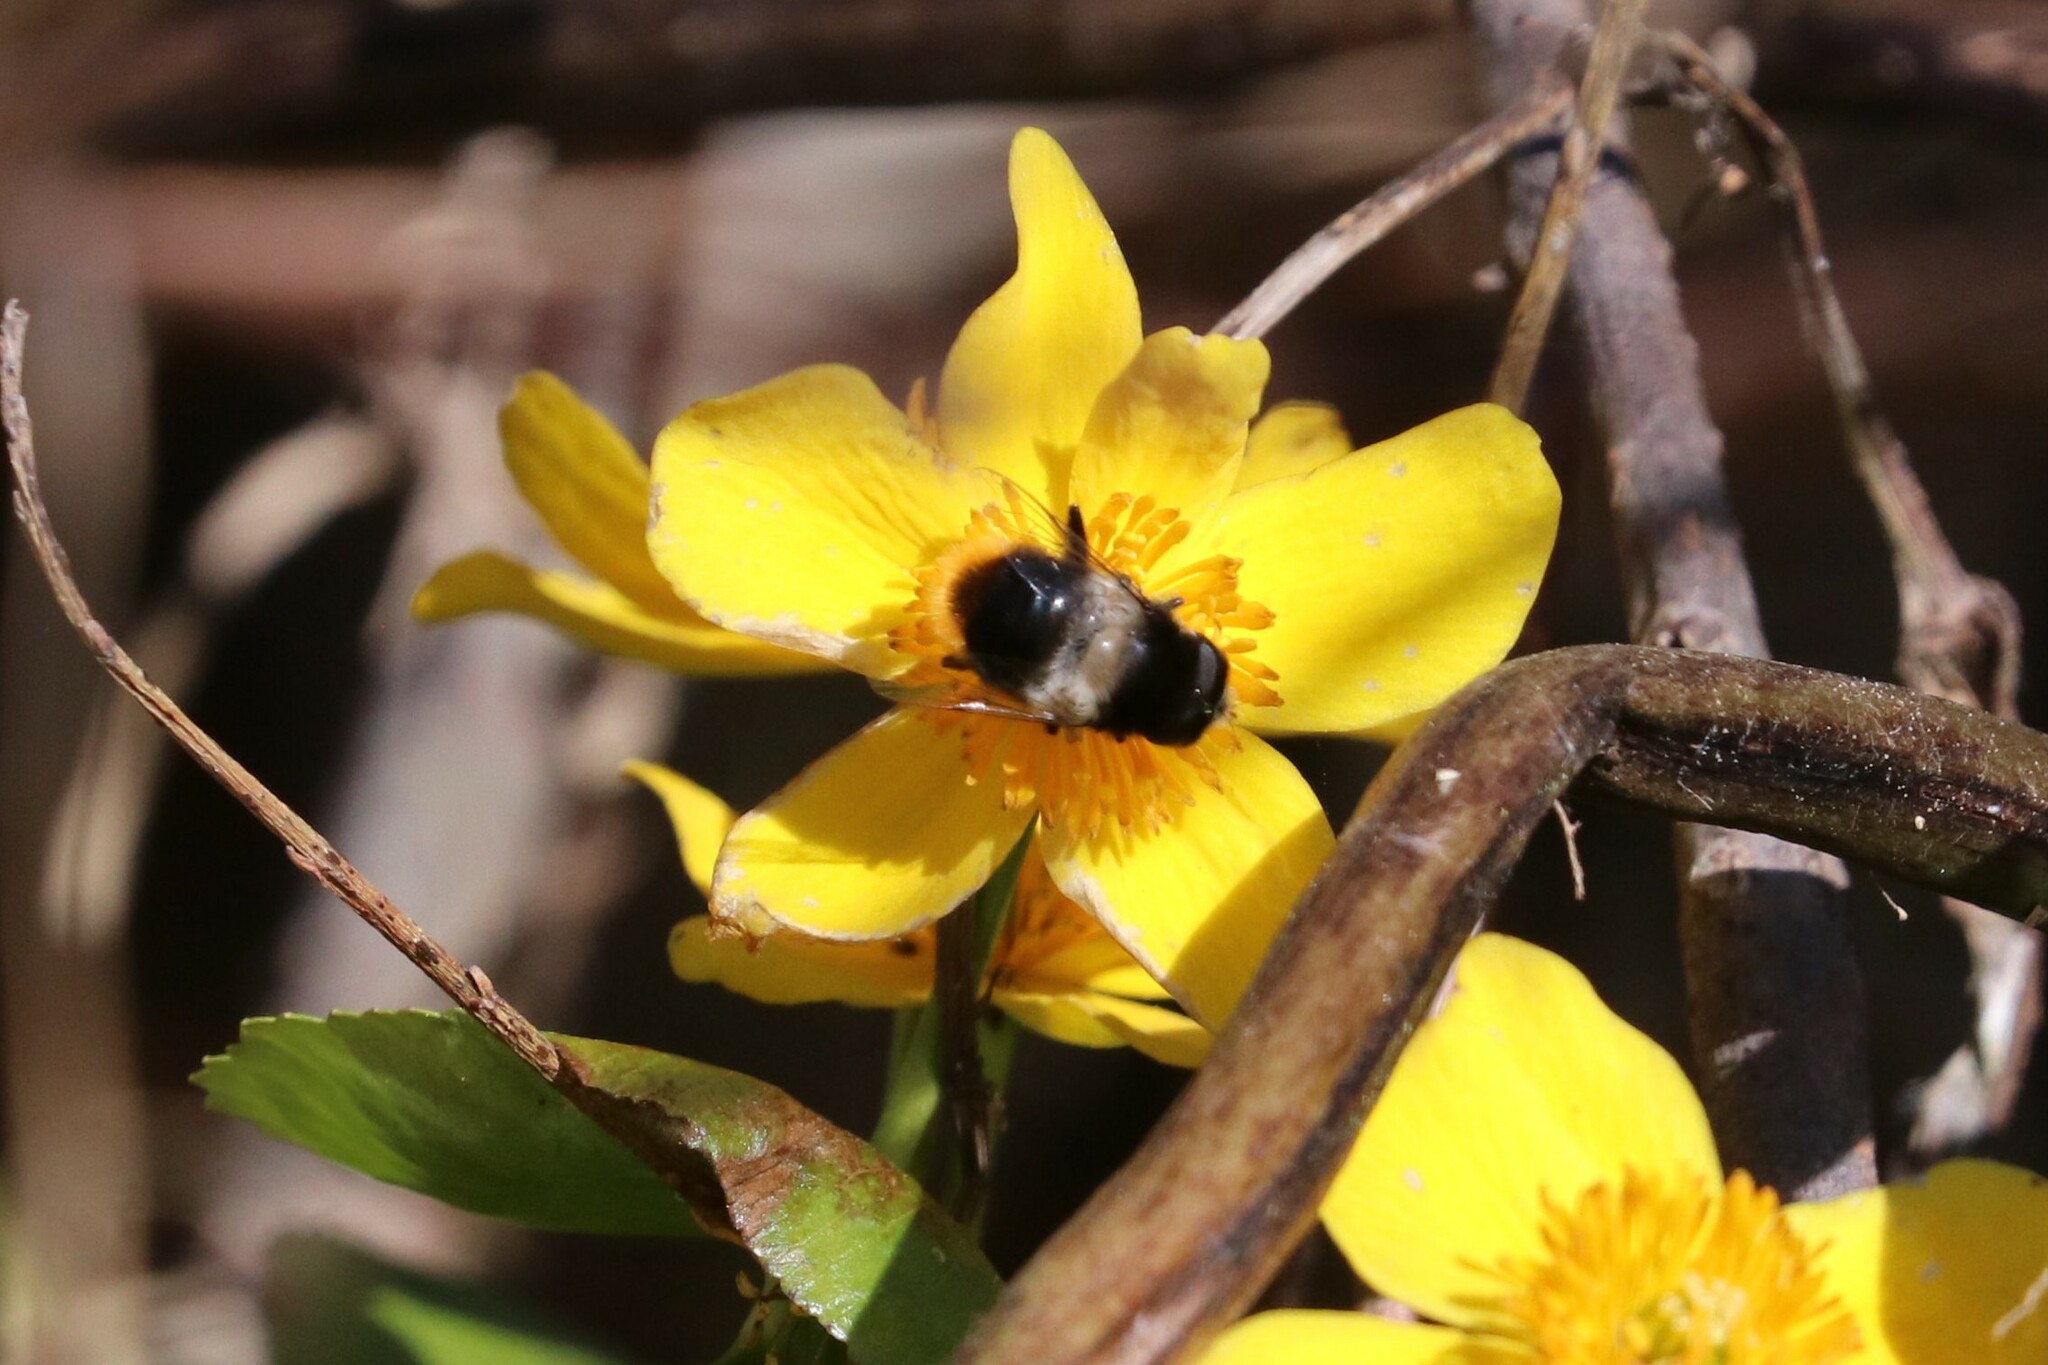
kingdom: Animalia
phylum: Arthropoda
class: Insecta
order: Diptera
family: Syrphidae
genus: Eristalis
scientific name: Eristalis oestracea
